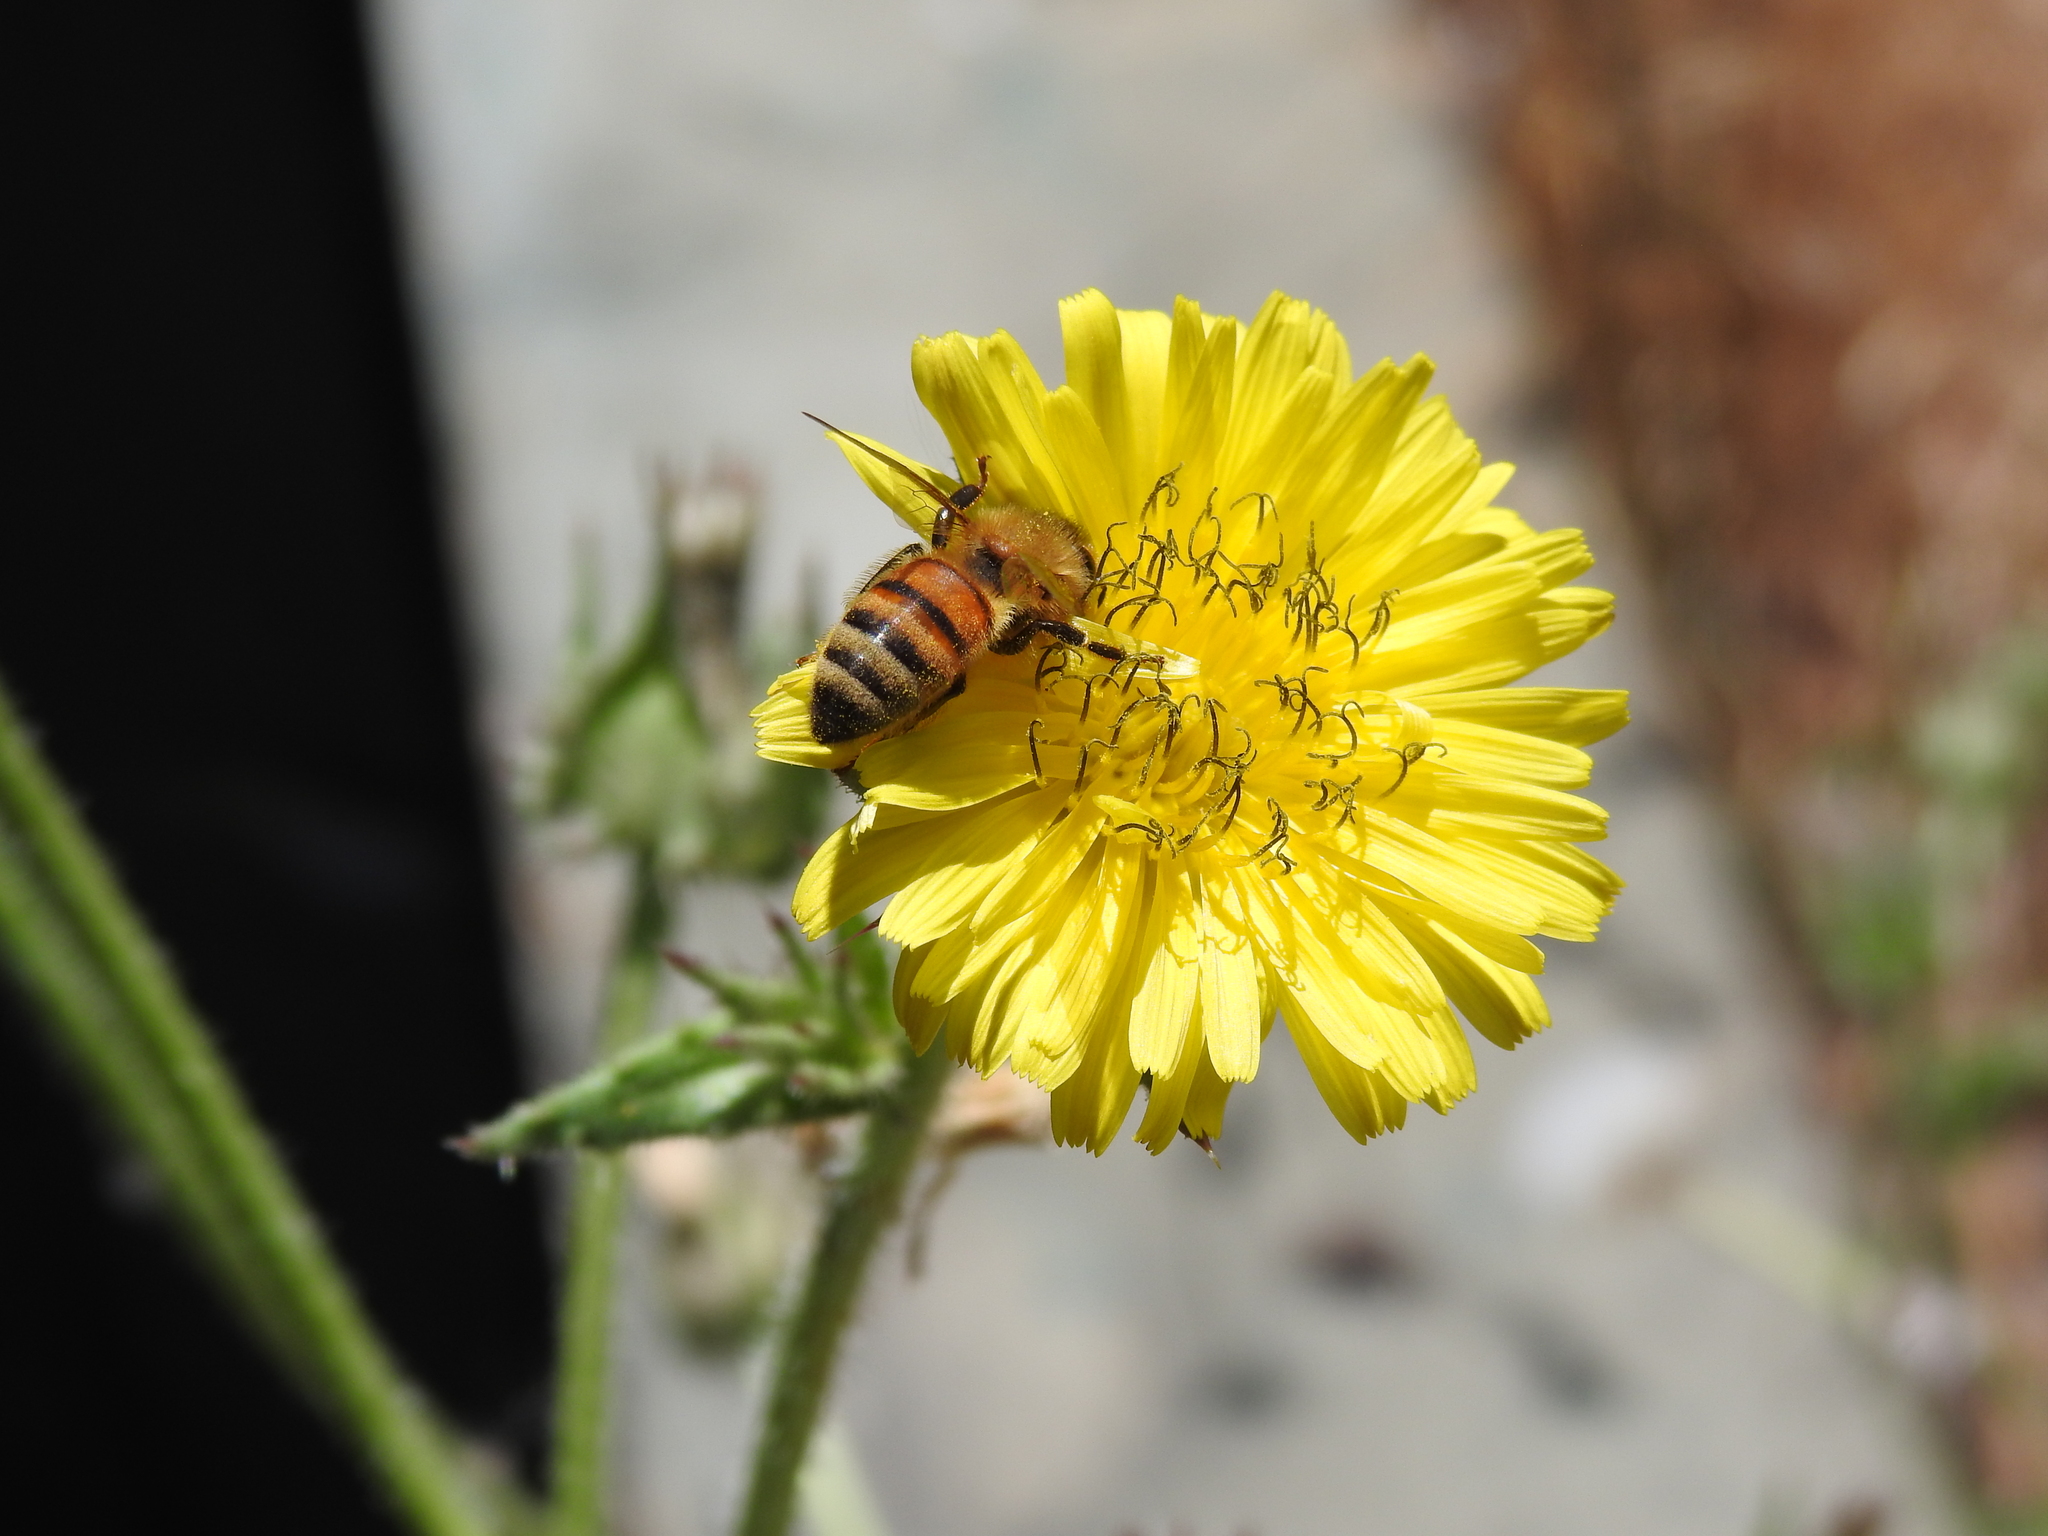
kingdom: Animalia
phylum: Arthropoda
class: Insecta
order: Hymenoptera
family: Apidae
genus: Apis
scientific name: Apis mellifera
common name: Honey bee
